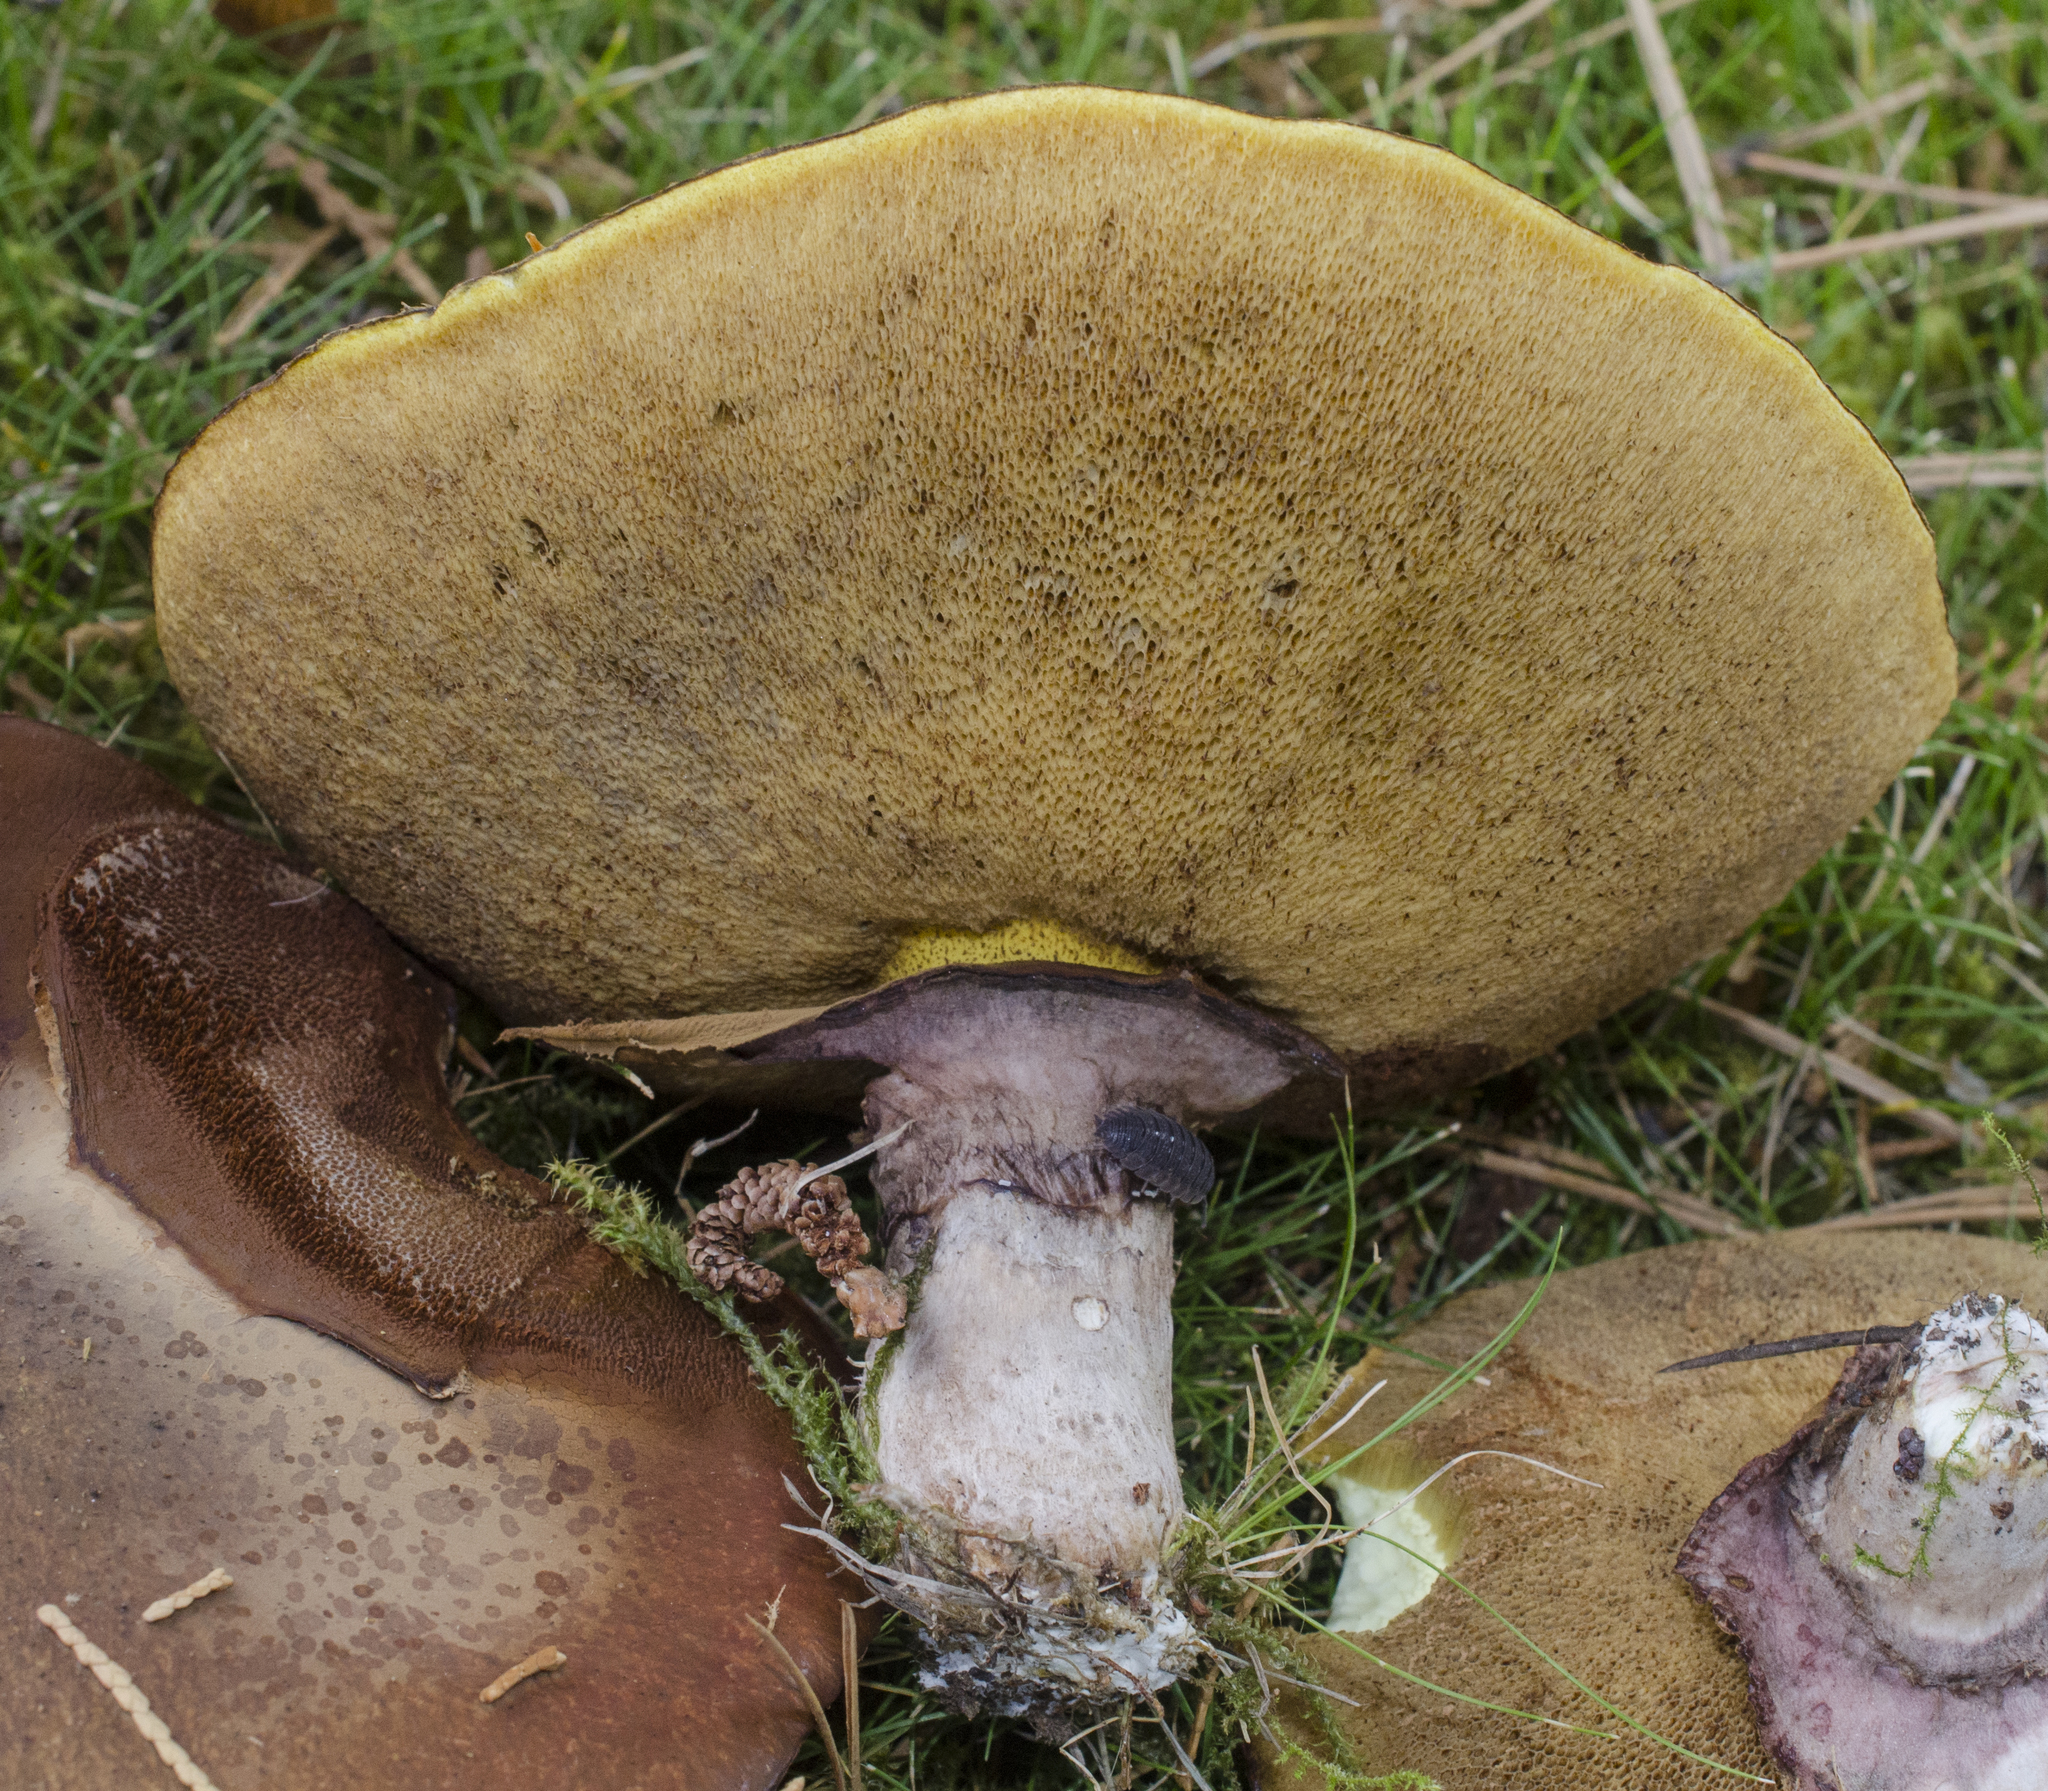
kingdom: Fungi
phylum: Basidiomycota
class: Agaricomycetes
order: Boletales
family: Suillaceae
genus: Suillus
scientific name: Suillus luteus
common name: Slippery jack
